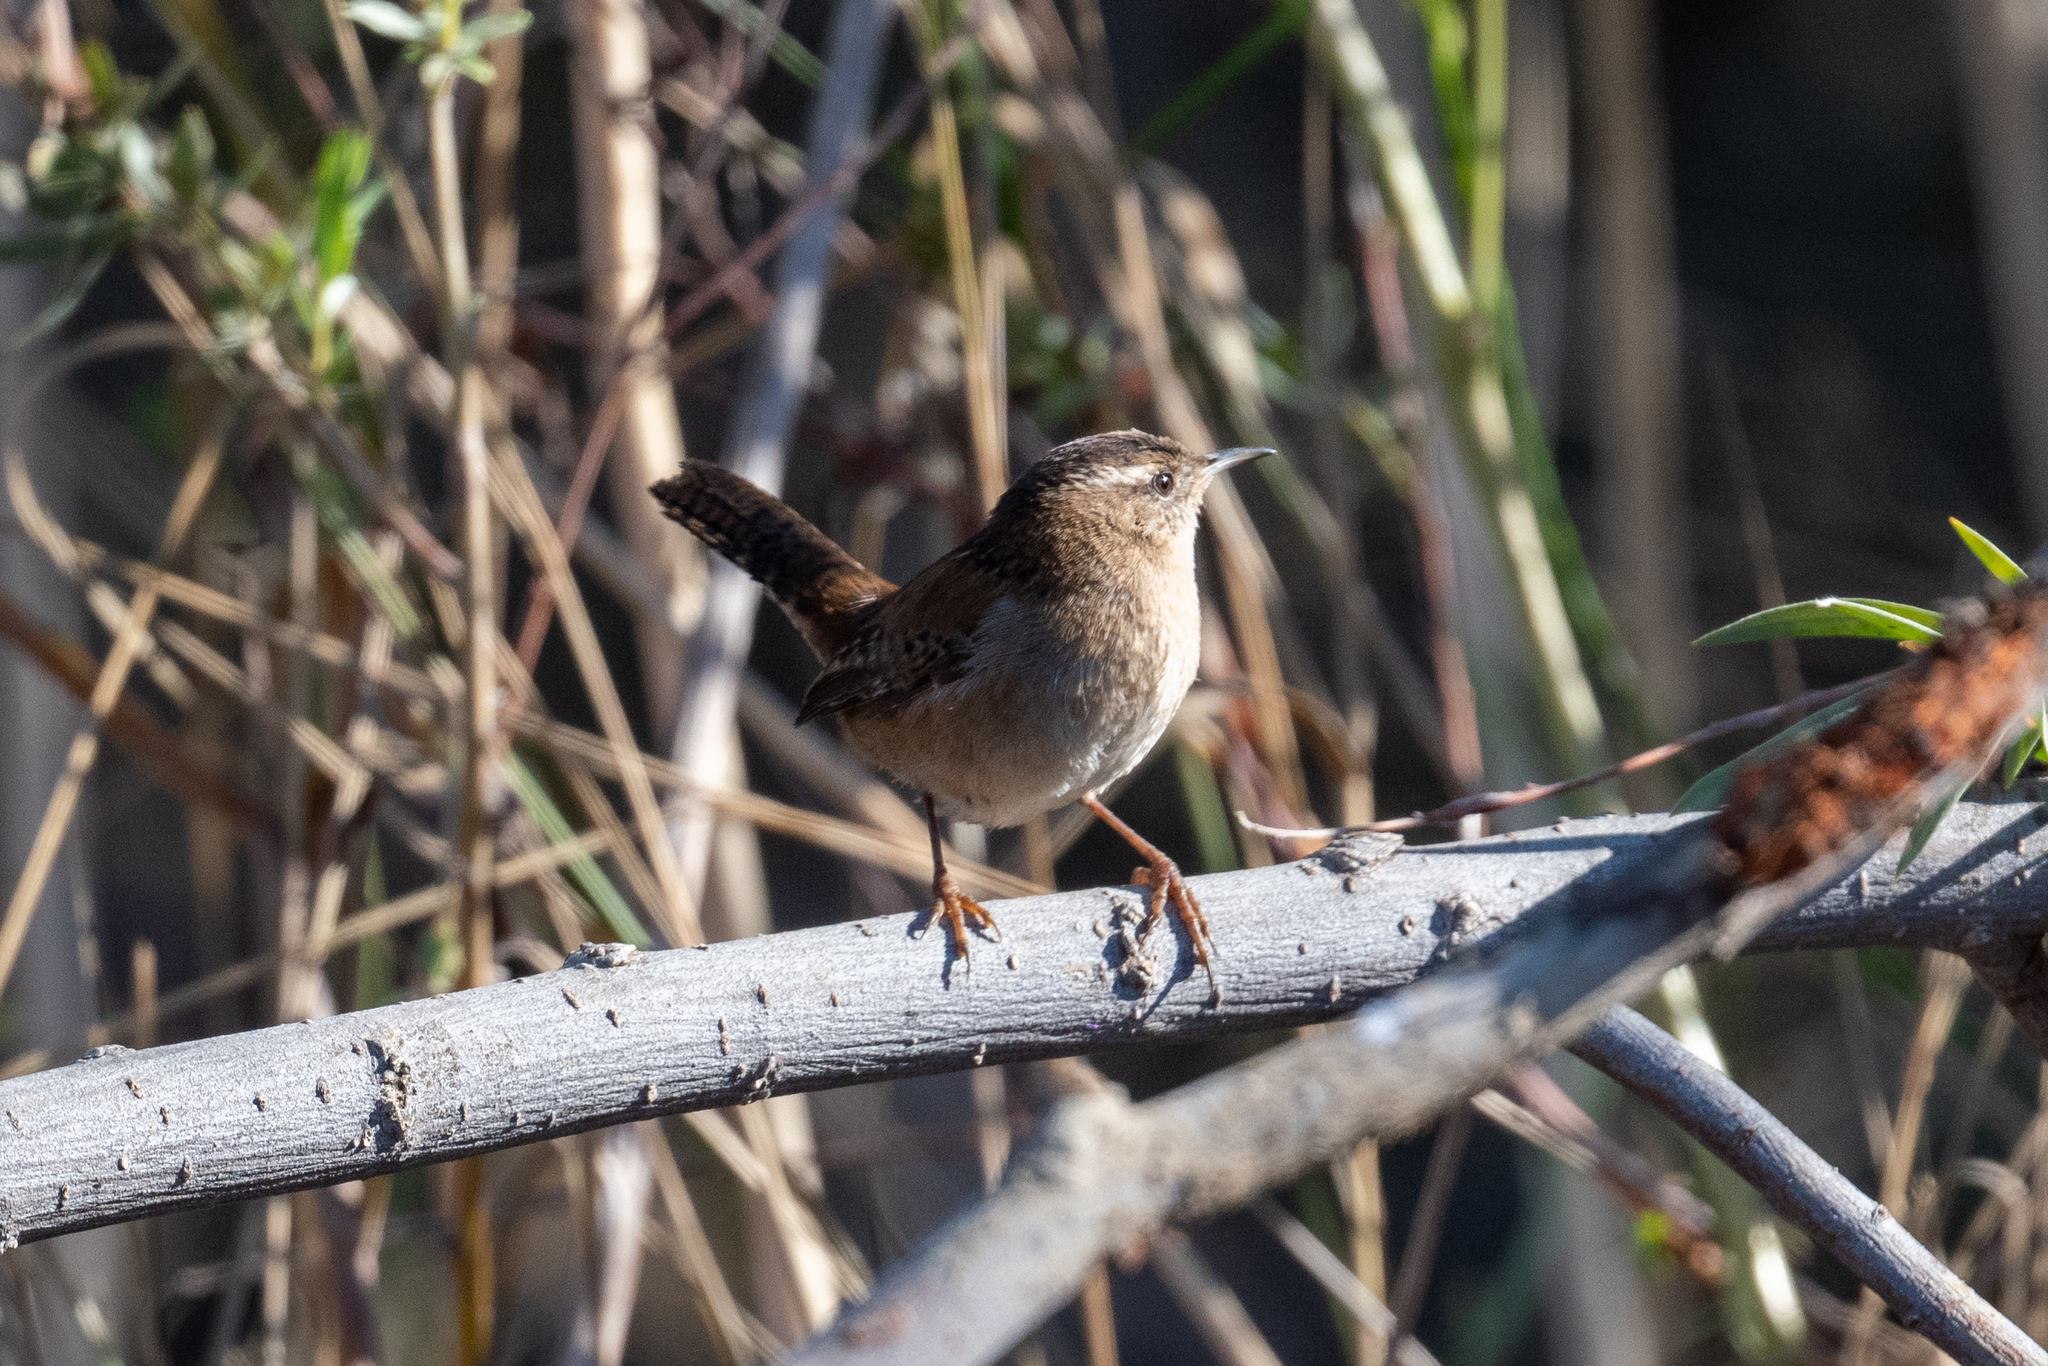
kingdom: Animalia
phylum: Chordata
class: Aves
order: Passeriformes
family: Troglodytidae
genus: Cistothorus
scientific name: Cistothorus palustris
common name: Marsh wren
